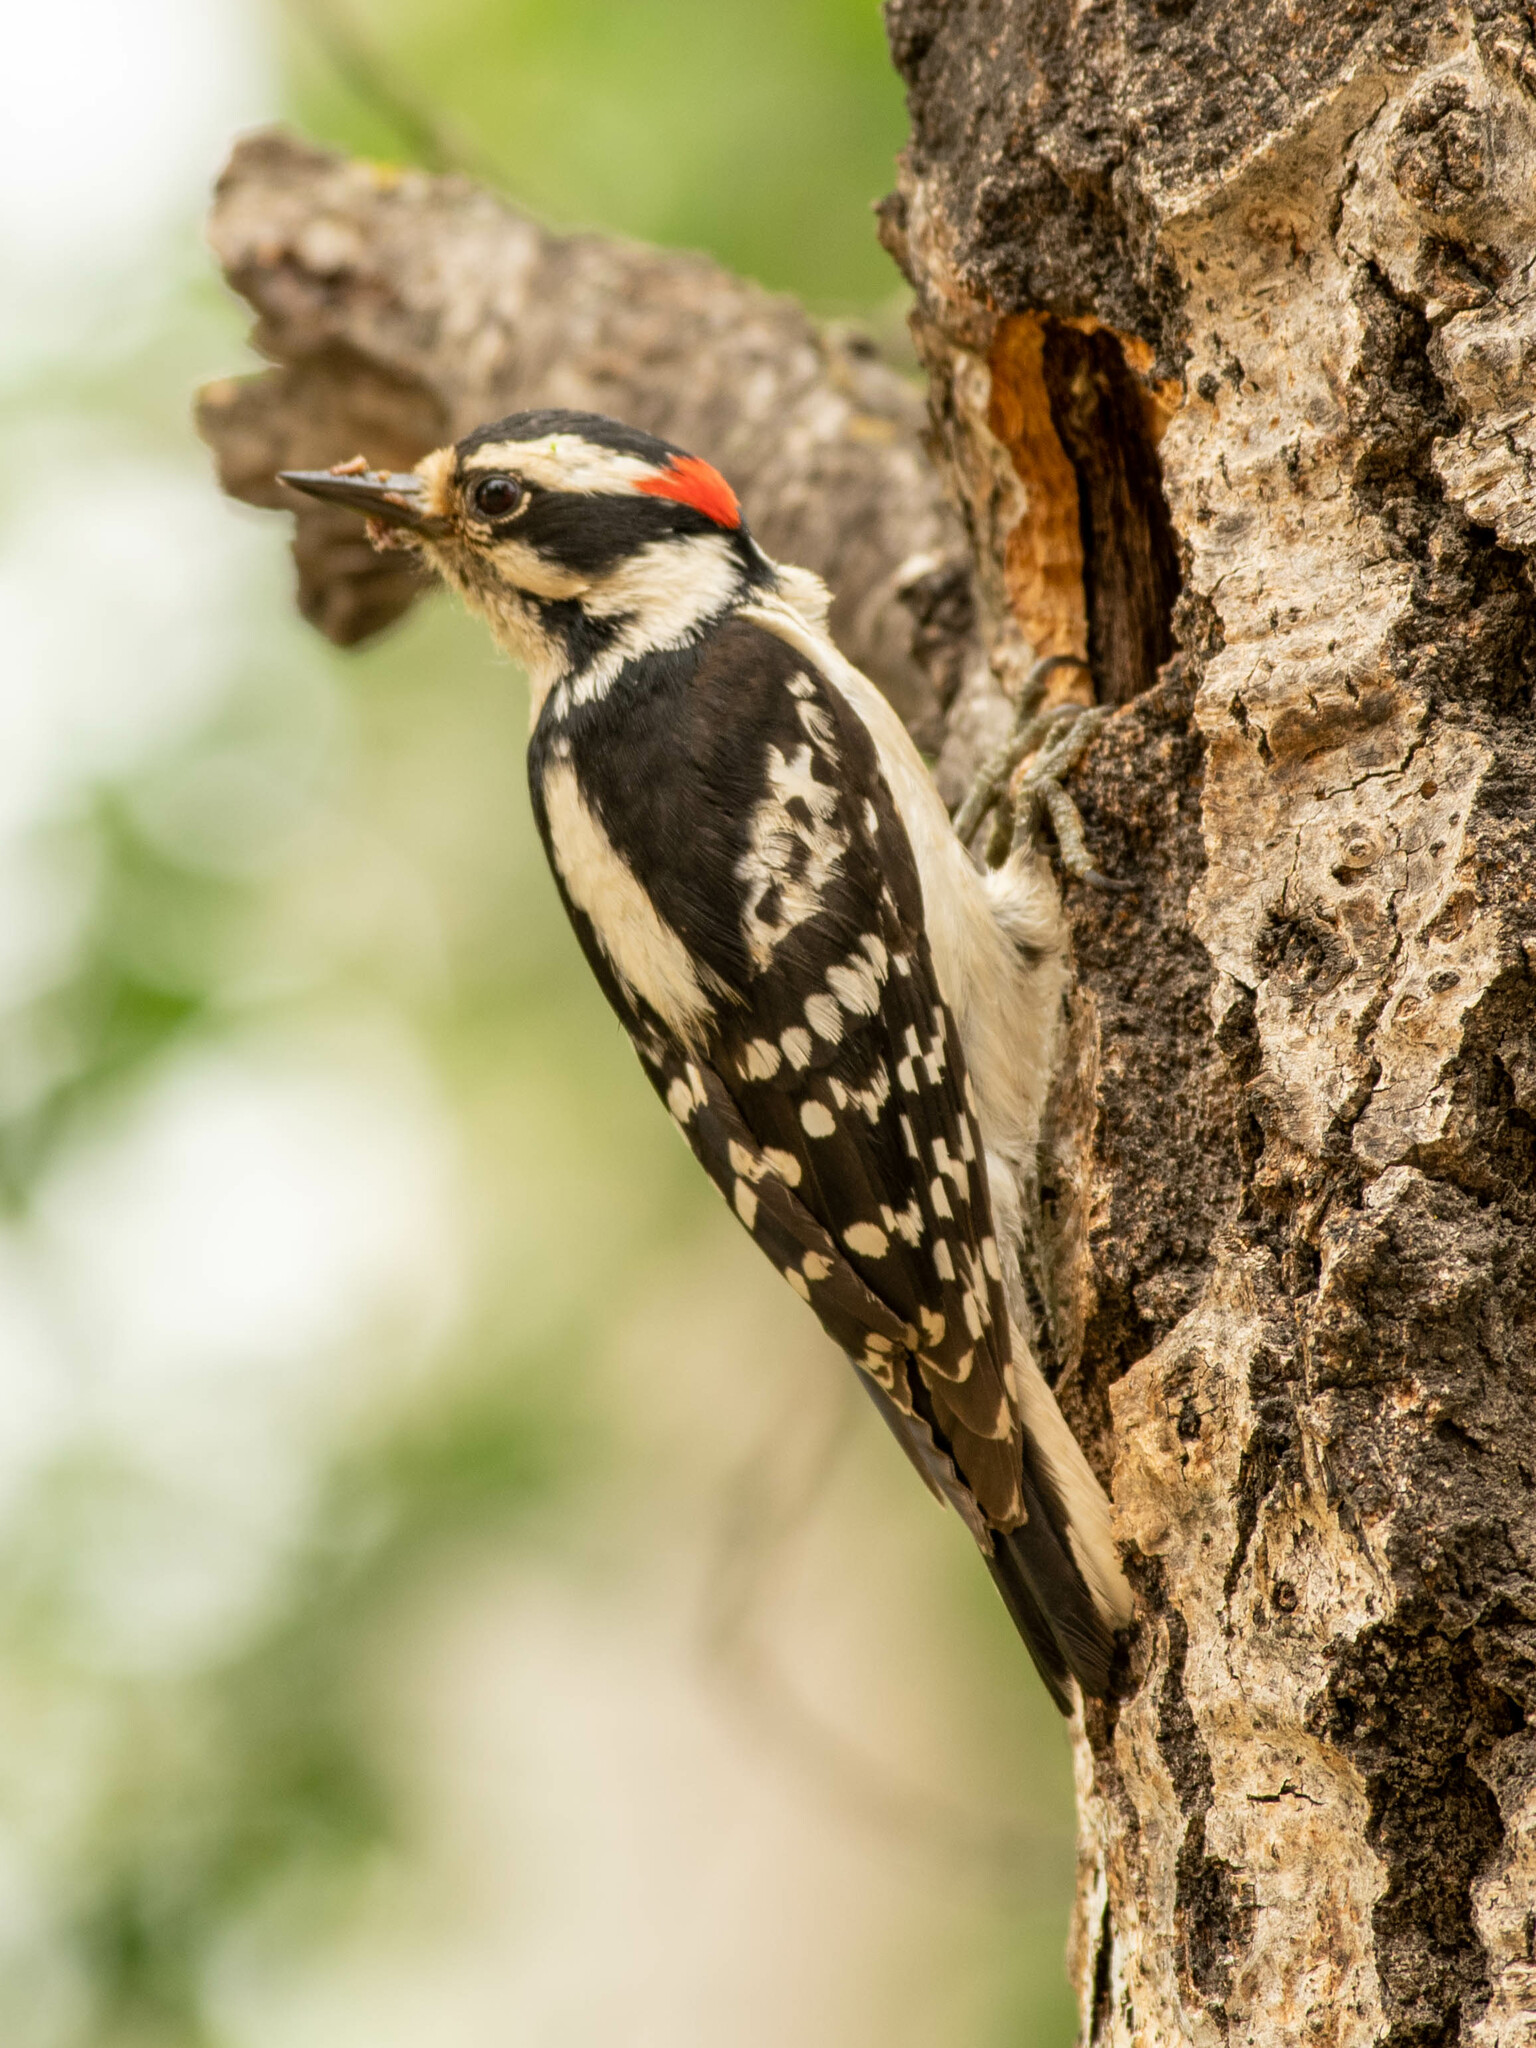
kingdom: Animalia
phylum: Chordata
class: Aves
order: Piciformes
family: Picidae
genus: Dryobates
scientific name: Dryobates pubescens
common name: Downy woodpecker
